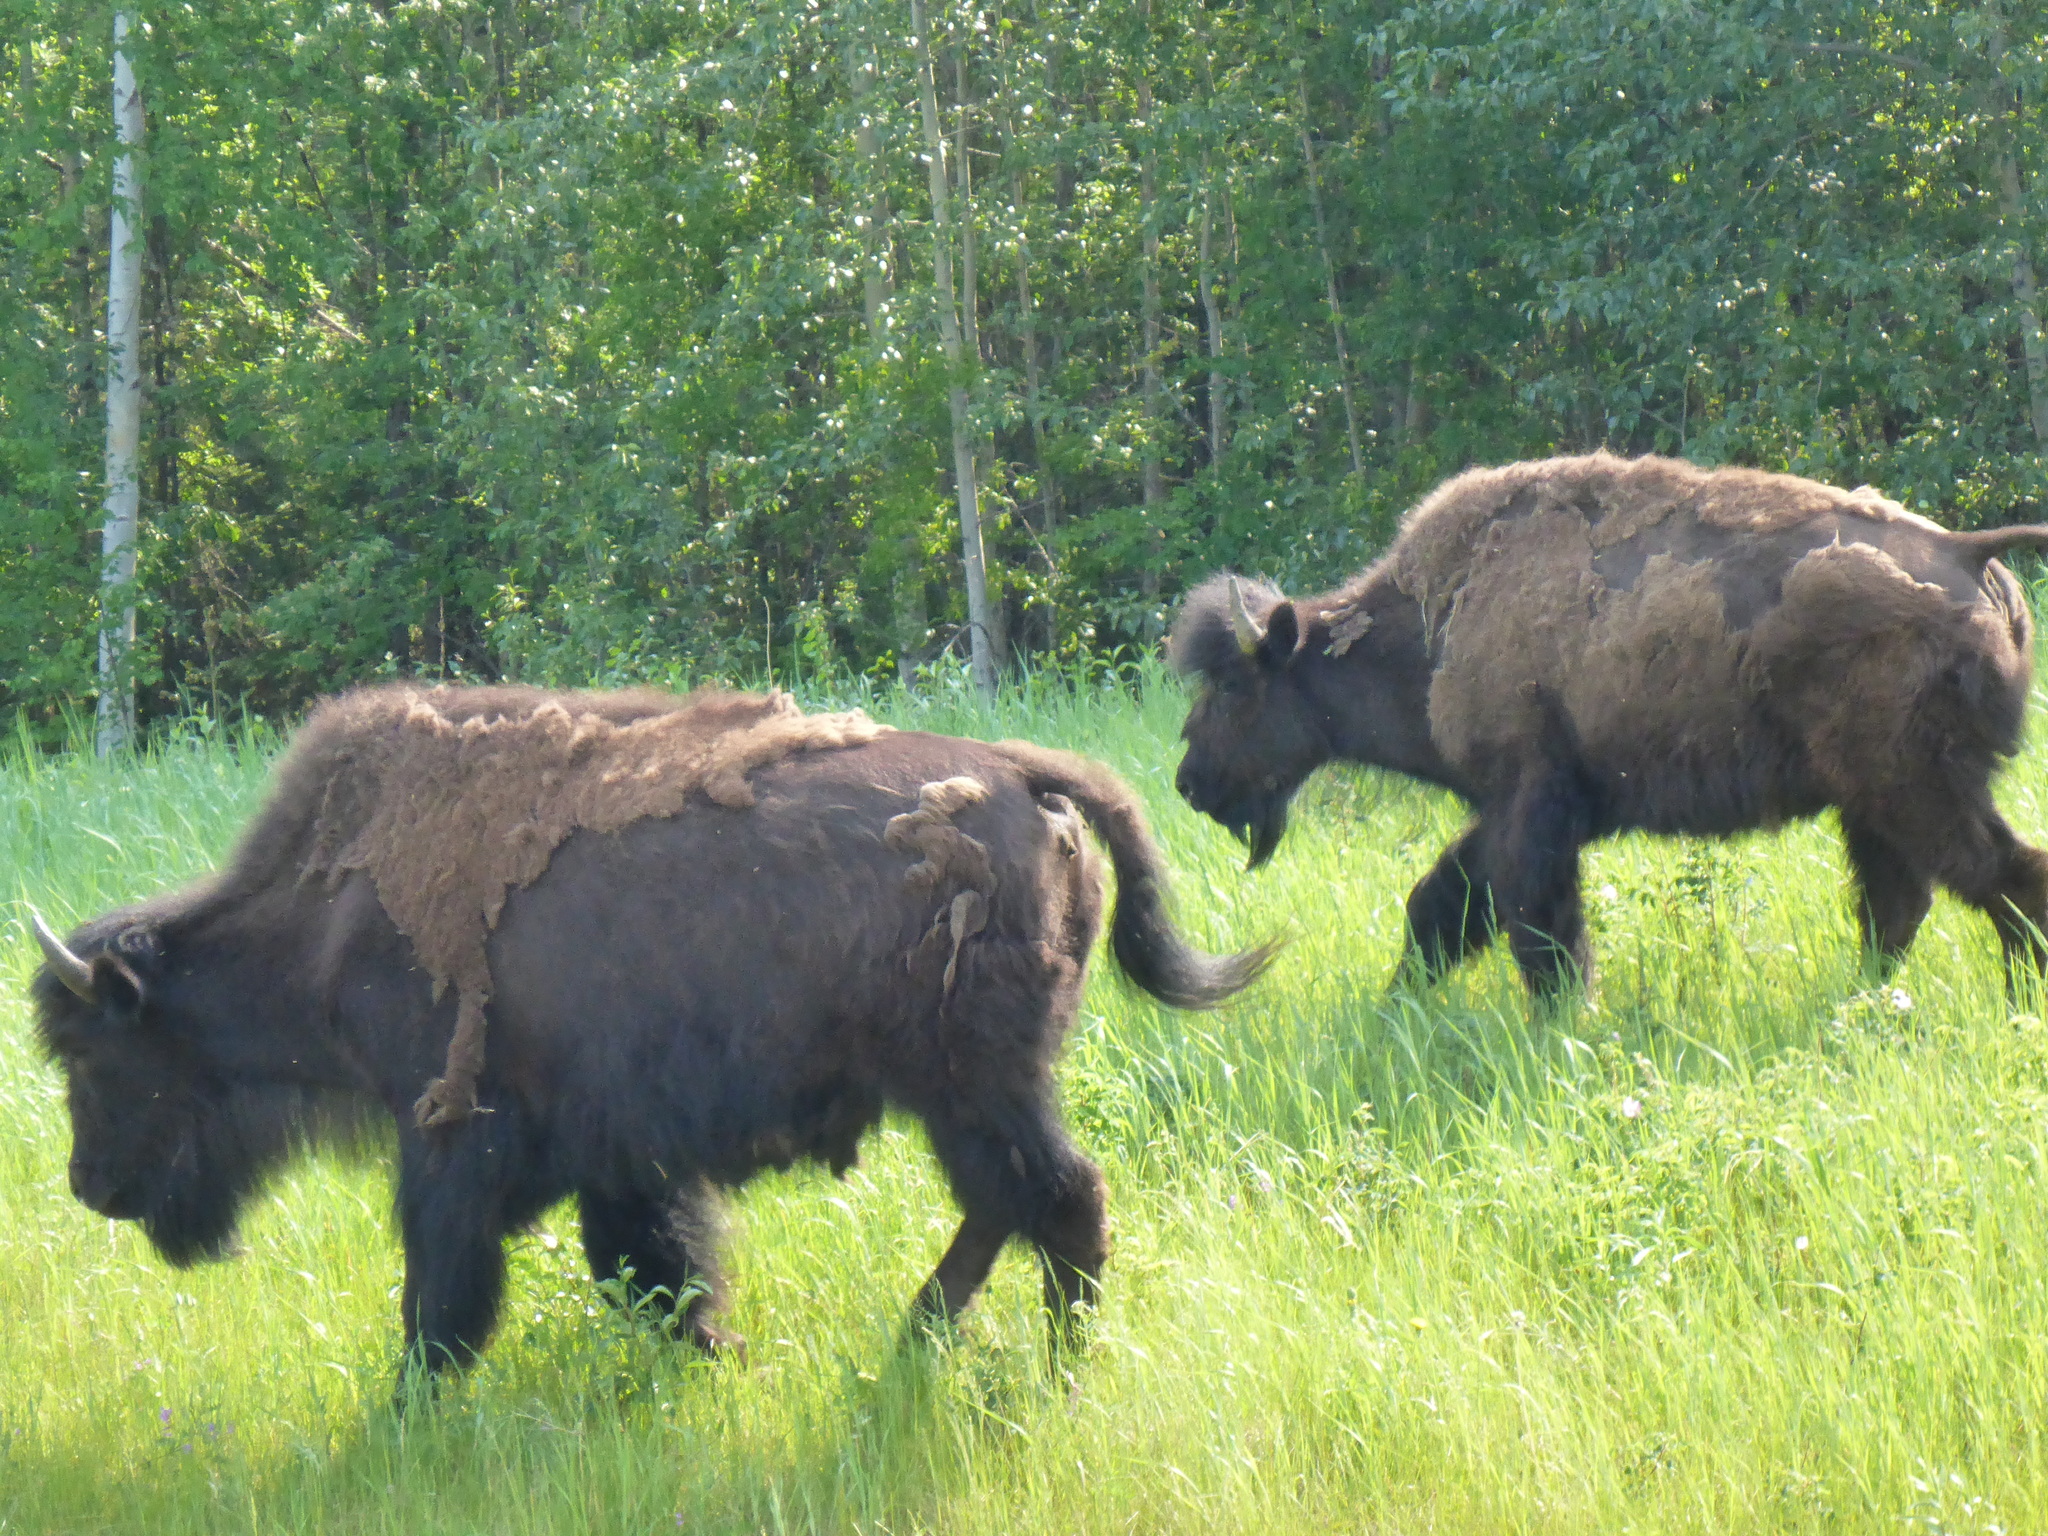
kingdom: Animalia
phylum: Chordata
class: Mammalia
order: Artiodactyla
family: Bovidae
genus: Bison
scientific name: Bison bison
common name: American bison
